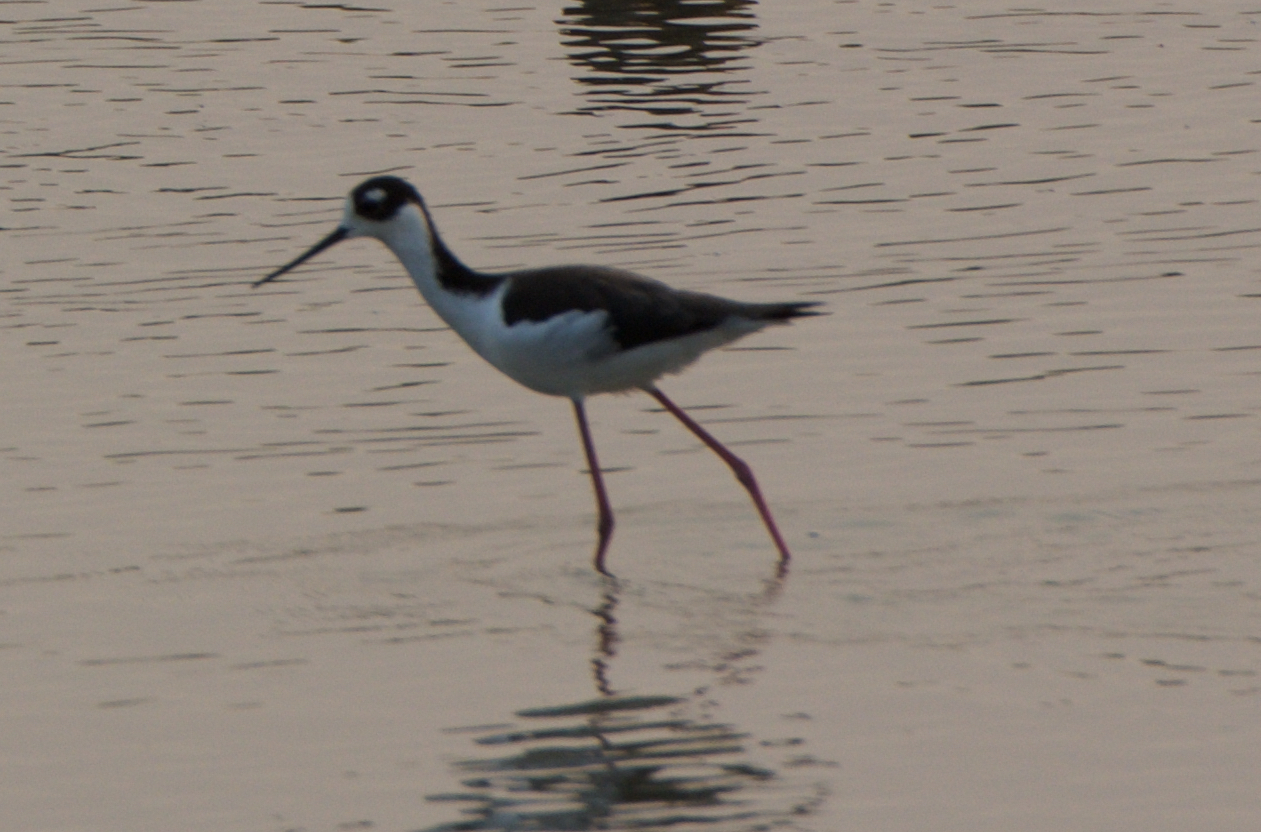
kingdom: Animalia
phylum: Chordata
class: Aves
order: Charadriiformes
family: Recurvirostridae
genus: Himantopus
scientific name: Himantopus mexicanus
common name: Black-necked stilt
